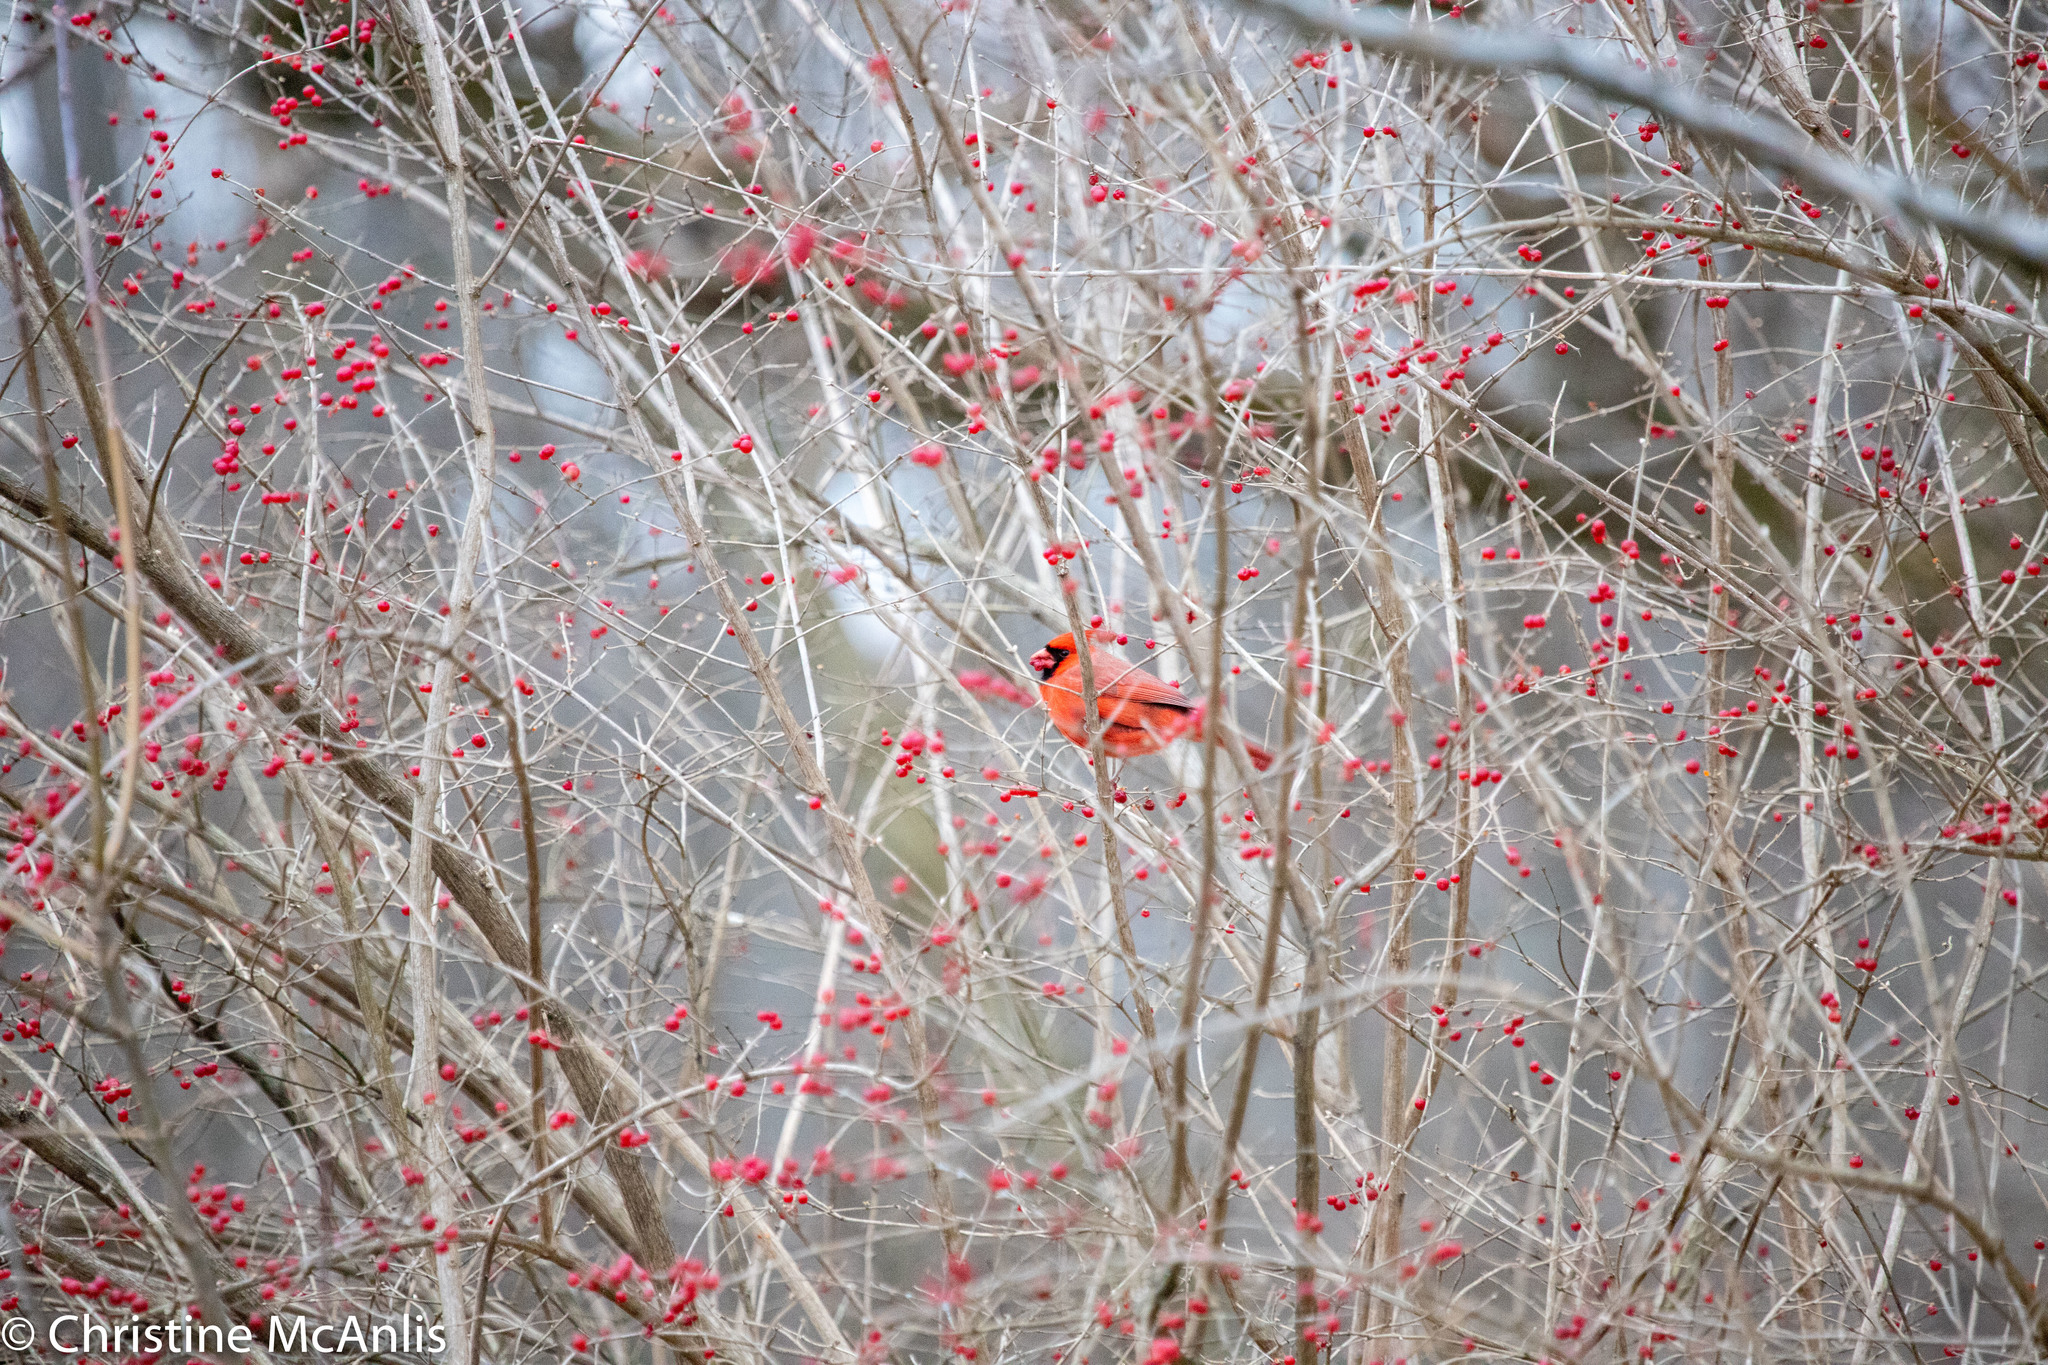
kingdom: Animalia
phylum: Chordata
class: Aves
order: Passeriformes
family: Cardinalidae
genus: Cardinalis
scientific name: Cardinalis cardinalis
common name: Northern cardinal
